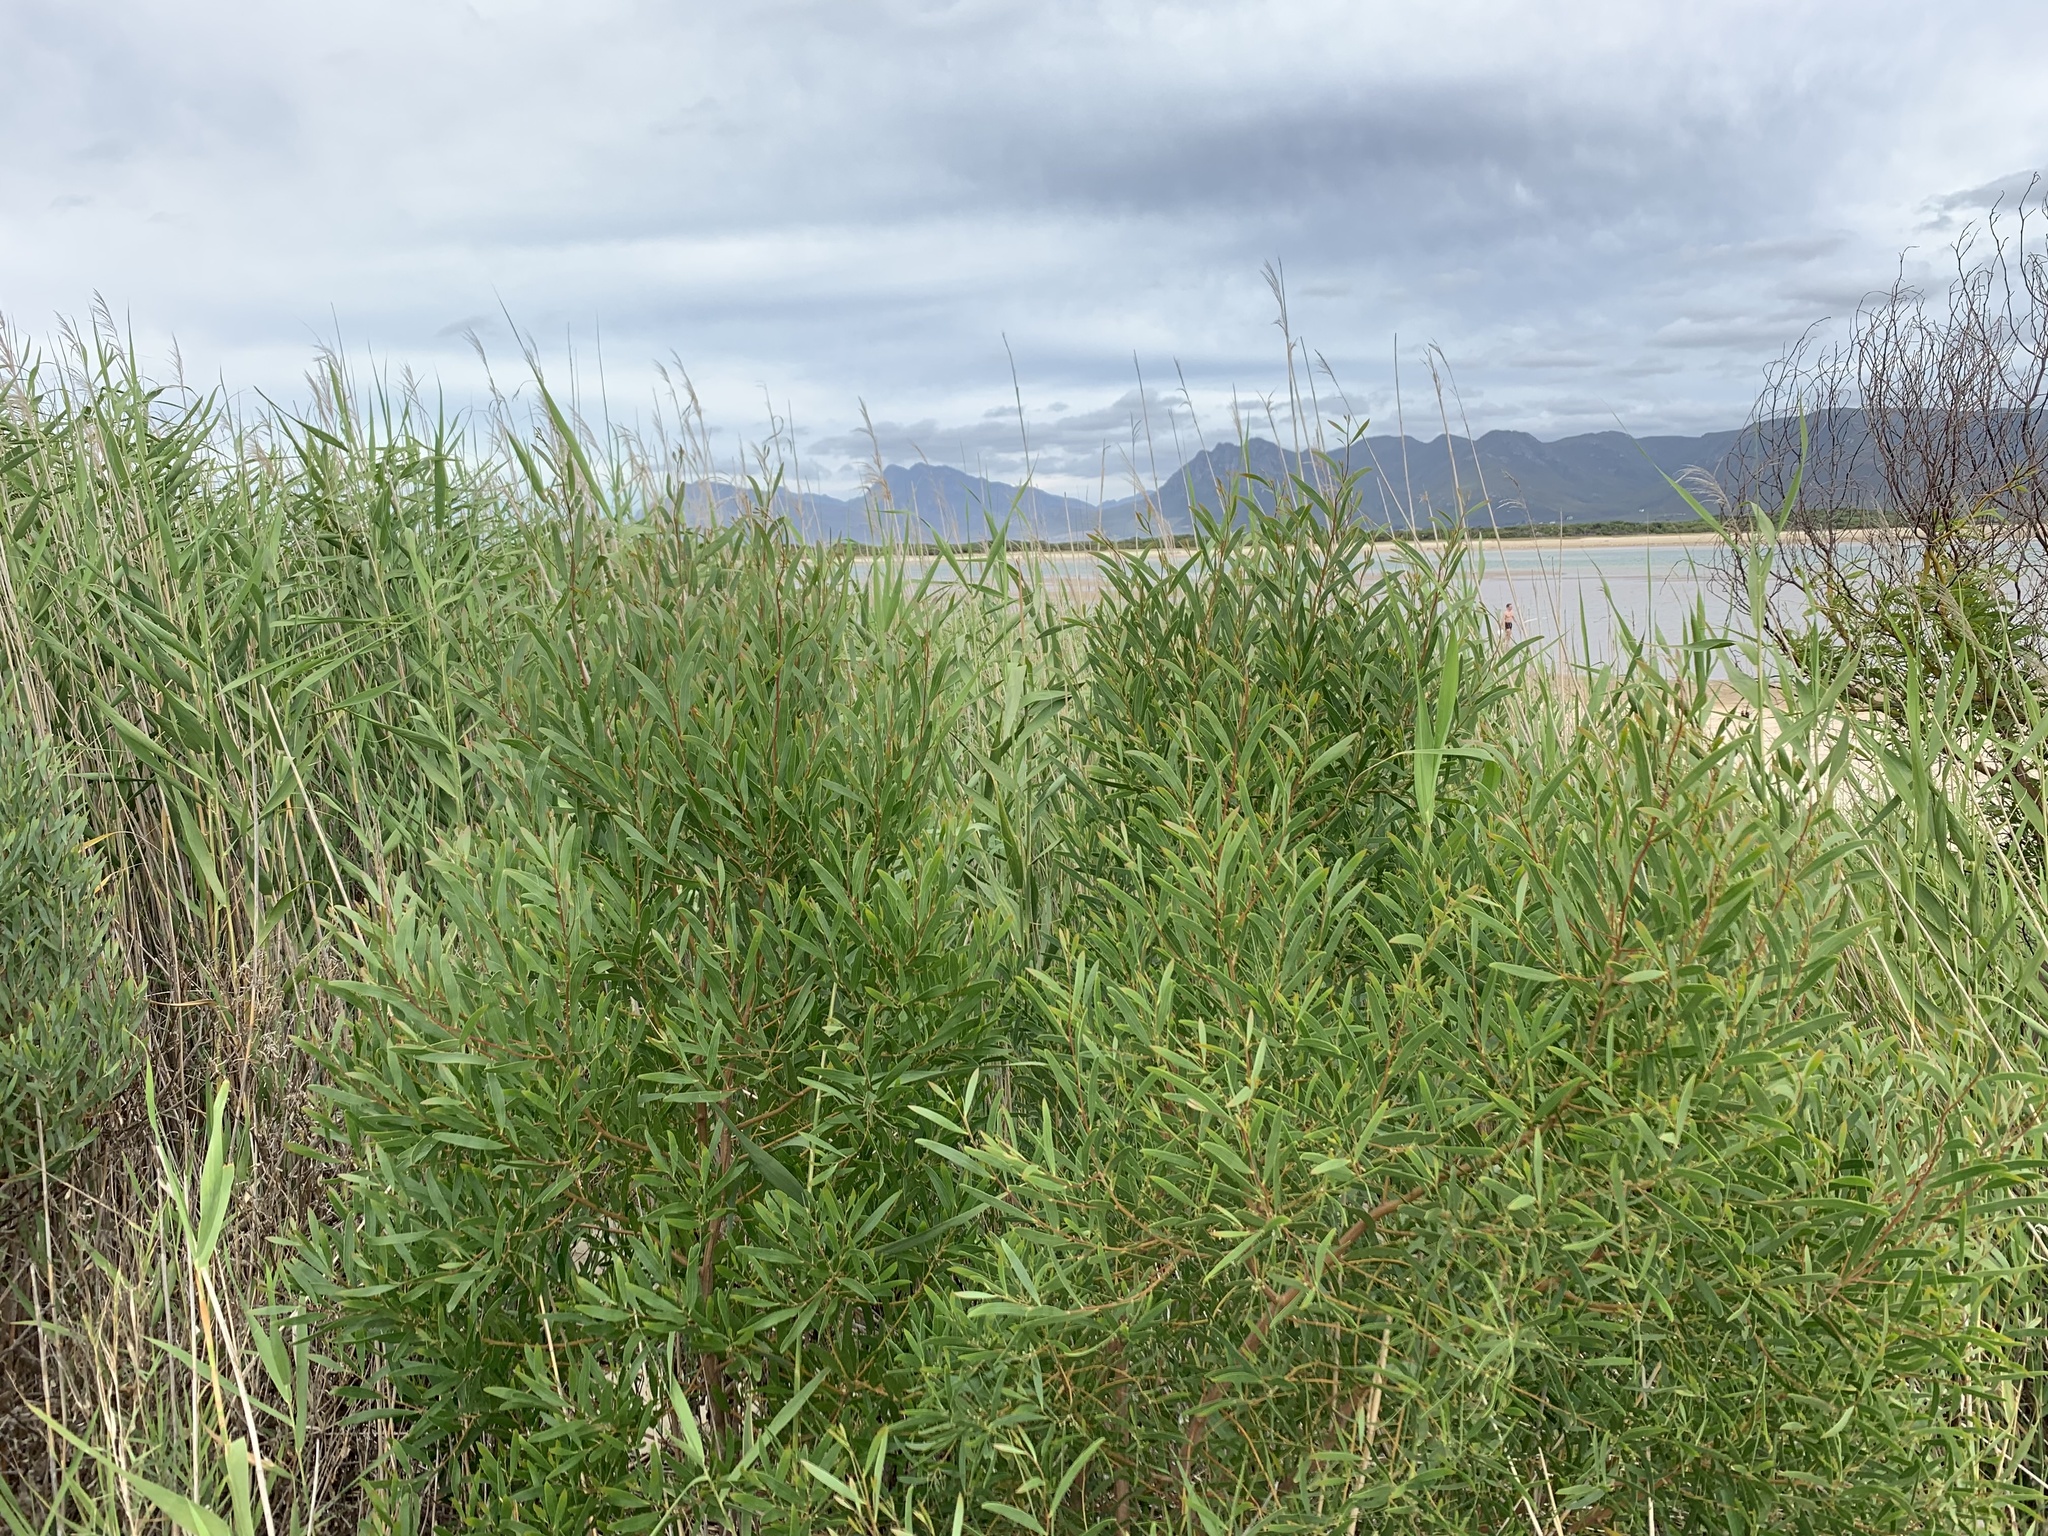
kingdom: Plantae
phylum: Tracheophyta
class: Magnoliopsida
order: Fabales
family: Fabaceae
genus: Acacia
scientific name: Acacia cyclops
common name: Coastal wattle
